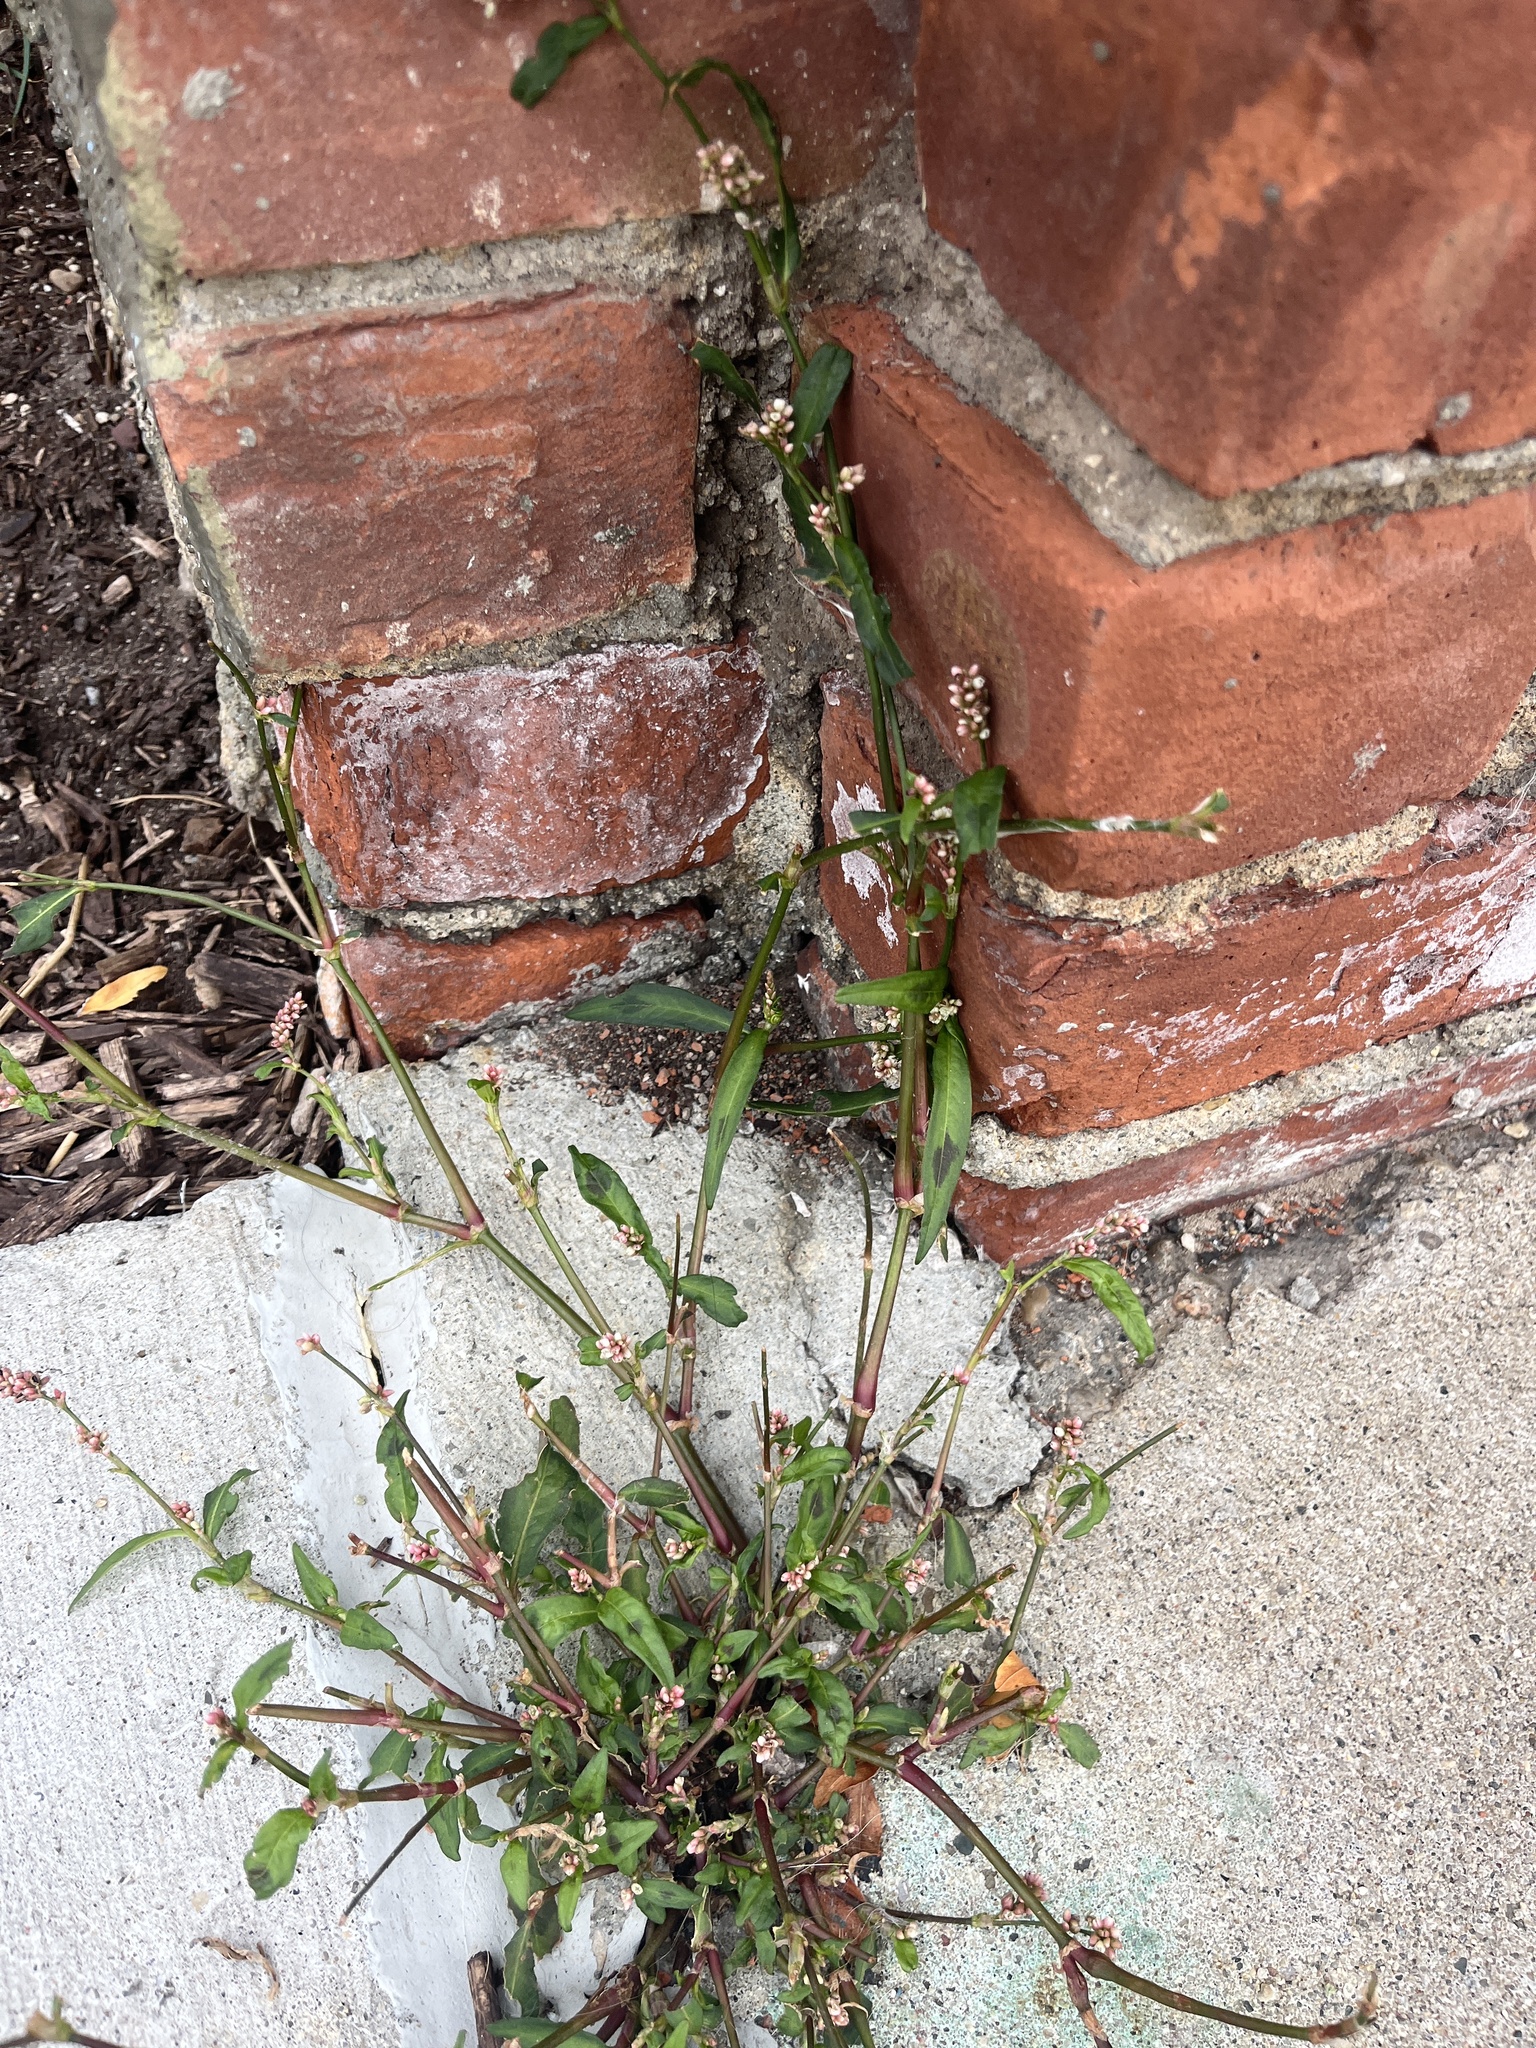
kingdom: Plantae
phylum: Tracheophyta
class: Magnoliopsida
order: Caryophyllales
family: Polygonaceae
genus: Persicaria
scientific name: Persicaria maculosa
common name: Redshank
